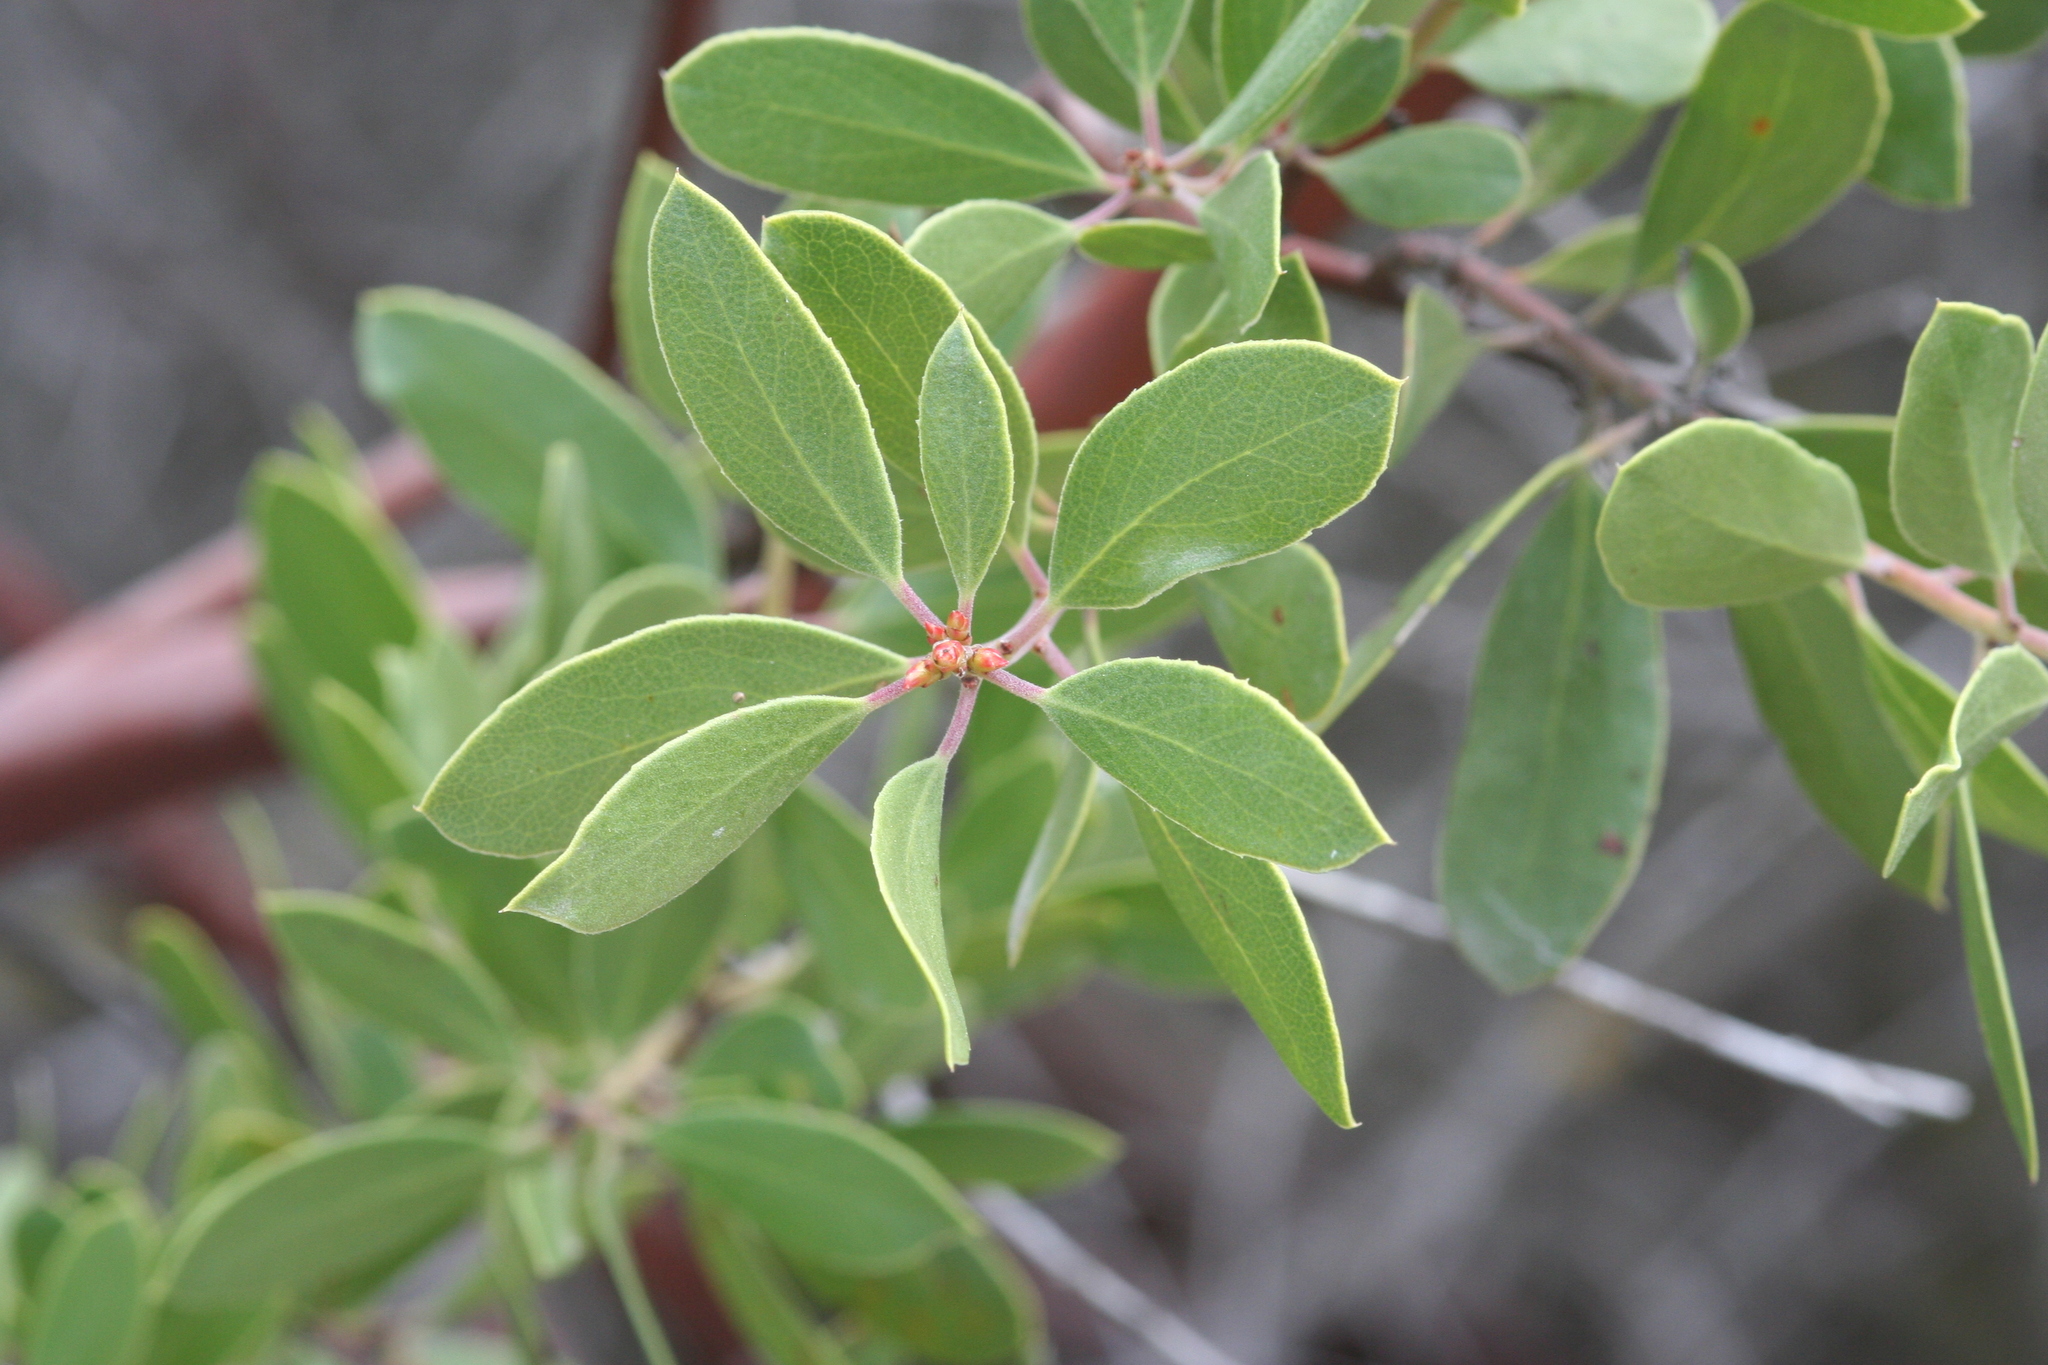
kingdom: Plantae
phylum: Tracheophyta
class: Magnoliopsida
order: Ericales
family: Ericaceae
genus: Arctostaphylos
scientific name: Arctostaphylos pungens
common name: Mexican manzanita
